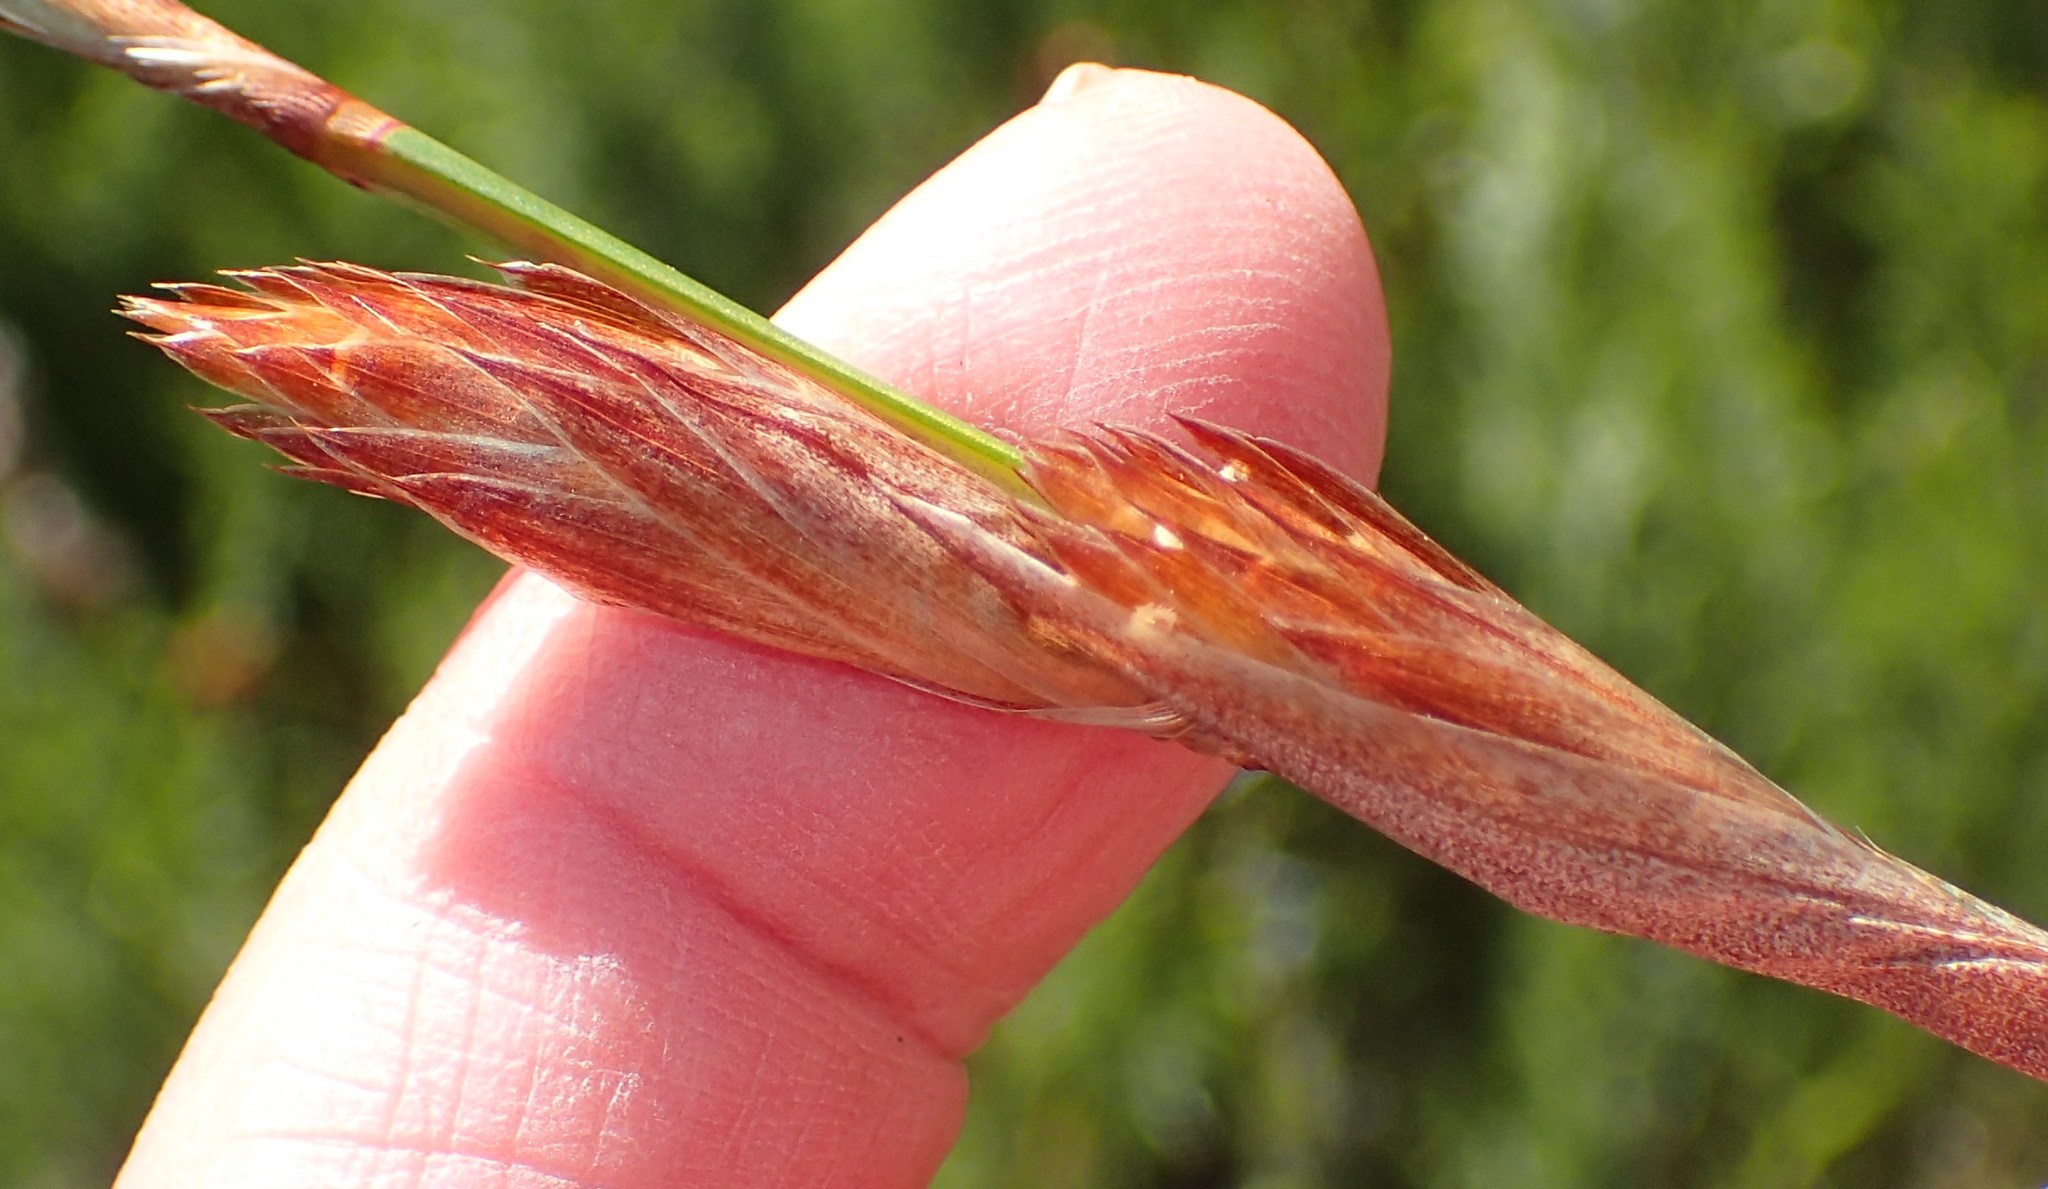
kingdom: Plantae
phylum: Tracheophyta
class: Liliopsida
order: Poales
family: Restionaceae
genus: Thamnochortus
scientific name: Thamnochortus glaber
